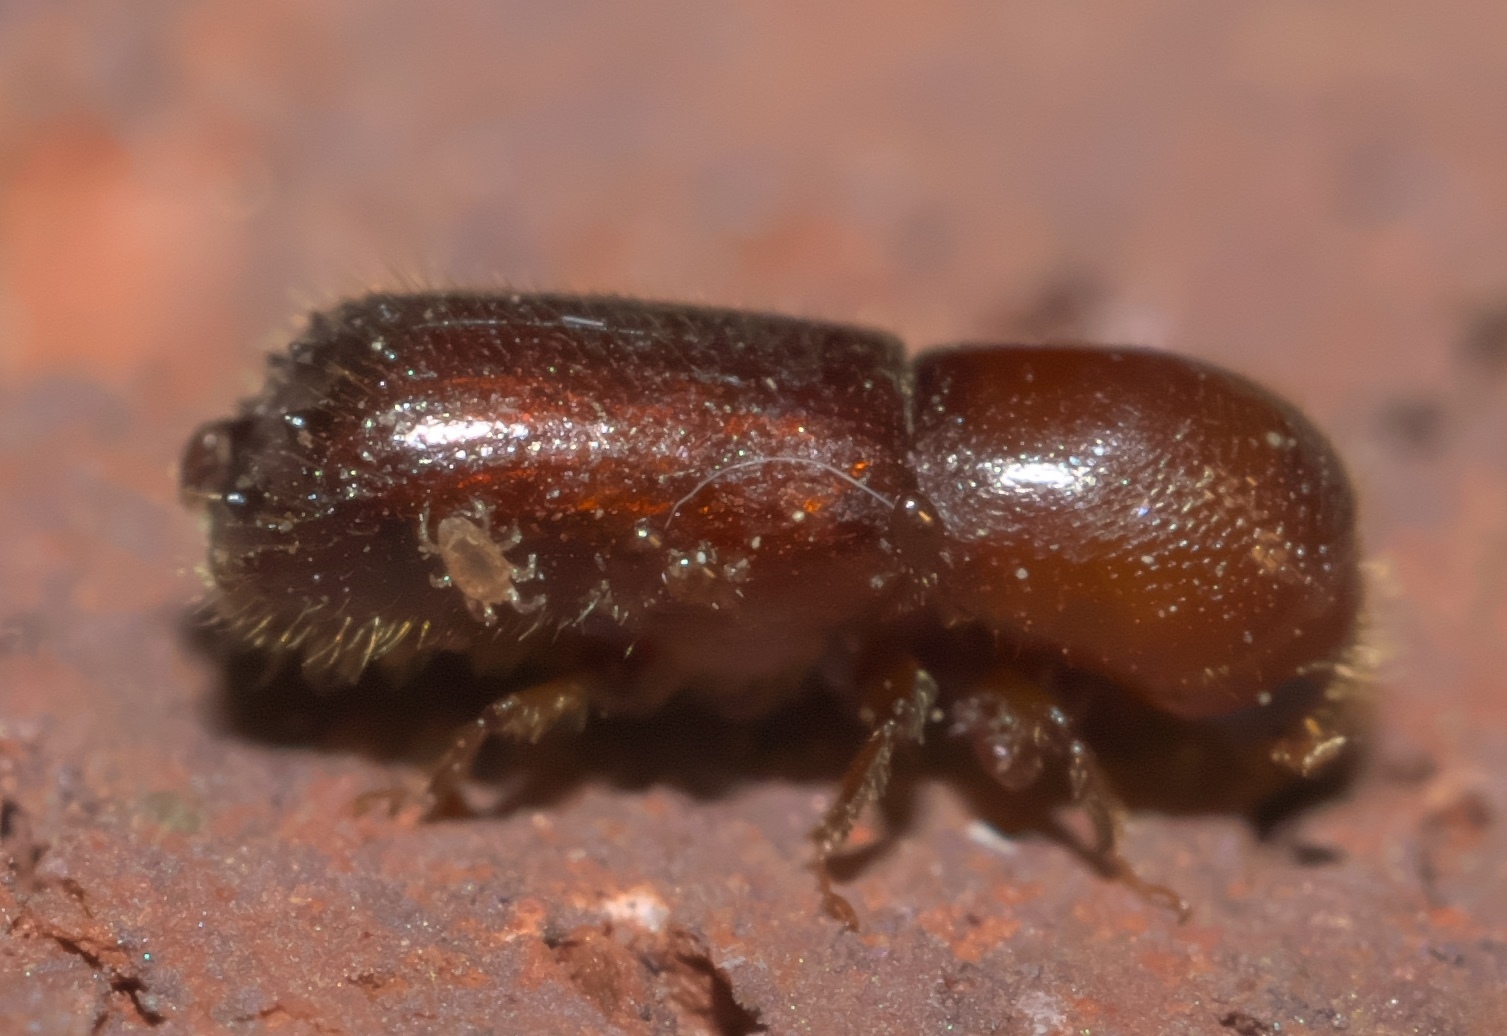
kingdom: Animalia
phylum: Arthropoda
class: Insecta
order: Coleoptera
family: Curculionidae
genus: Xyleborus
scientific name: Xyleborus celsus
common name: Weevil
